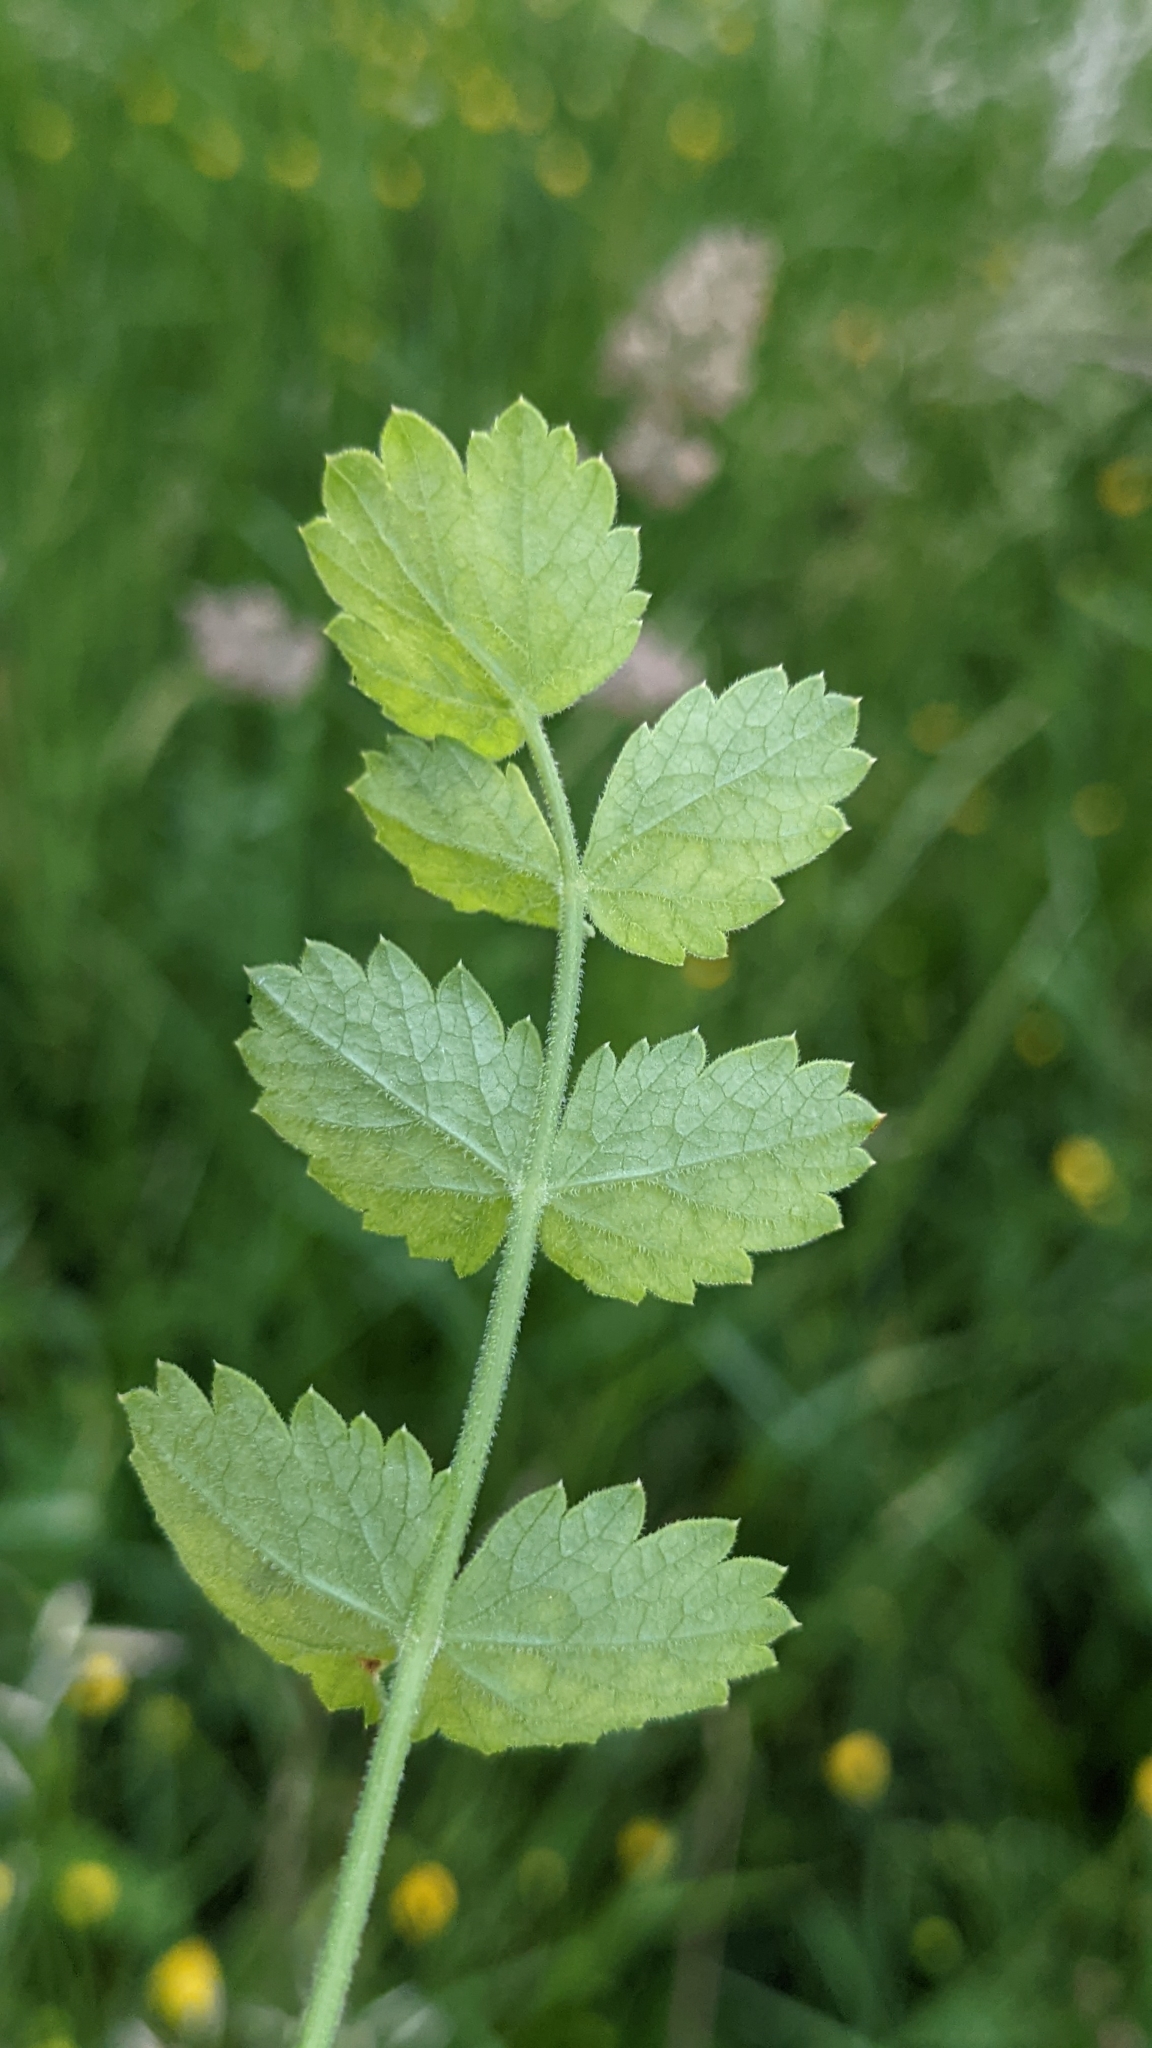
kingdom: Plantae
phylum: Tracheophyta
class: Magnoliopsida
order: Apiales
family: Apiaceae
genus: Pimpinella
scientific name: Pimpinella saxifraga
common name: Burnet-saxifrage
